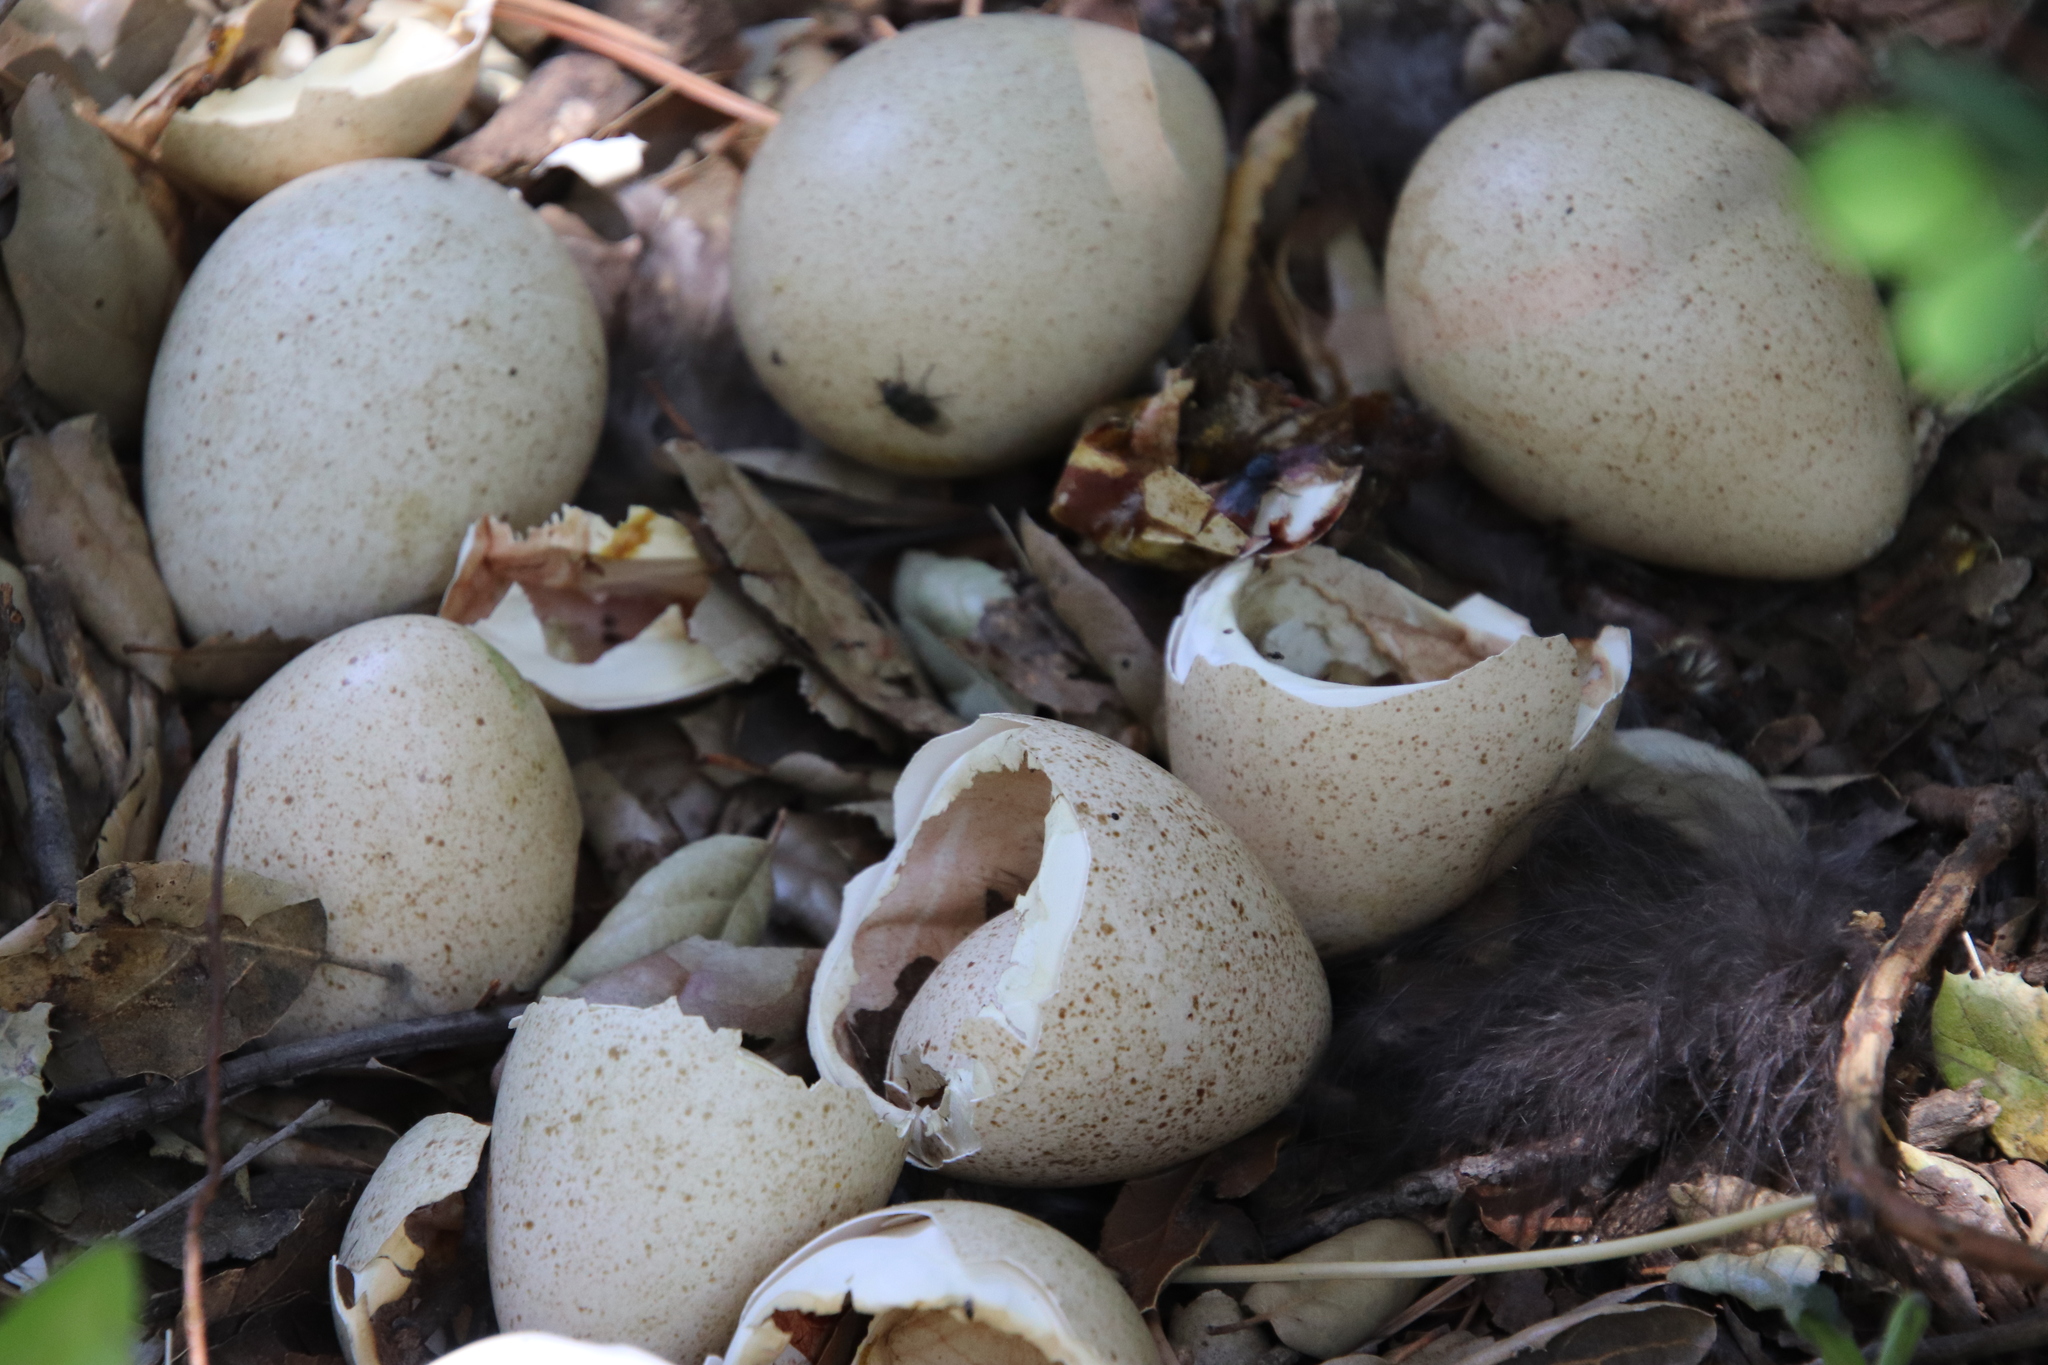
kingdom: Animalia
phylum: Chordata
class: Aves
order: Galliformes
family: Phasianidae
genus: Meleagris
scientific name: Meleagris gallopavo
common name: Wild turkey
